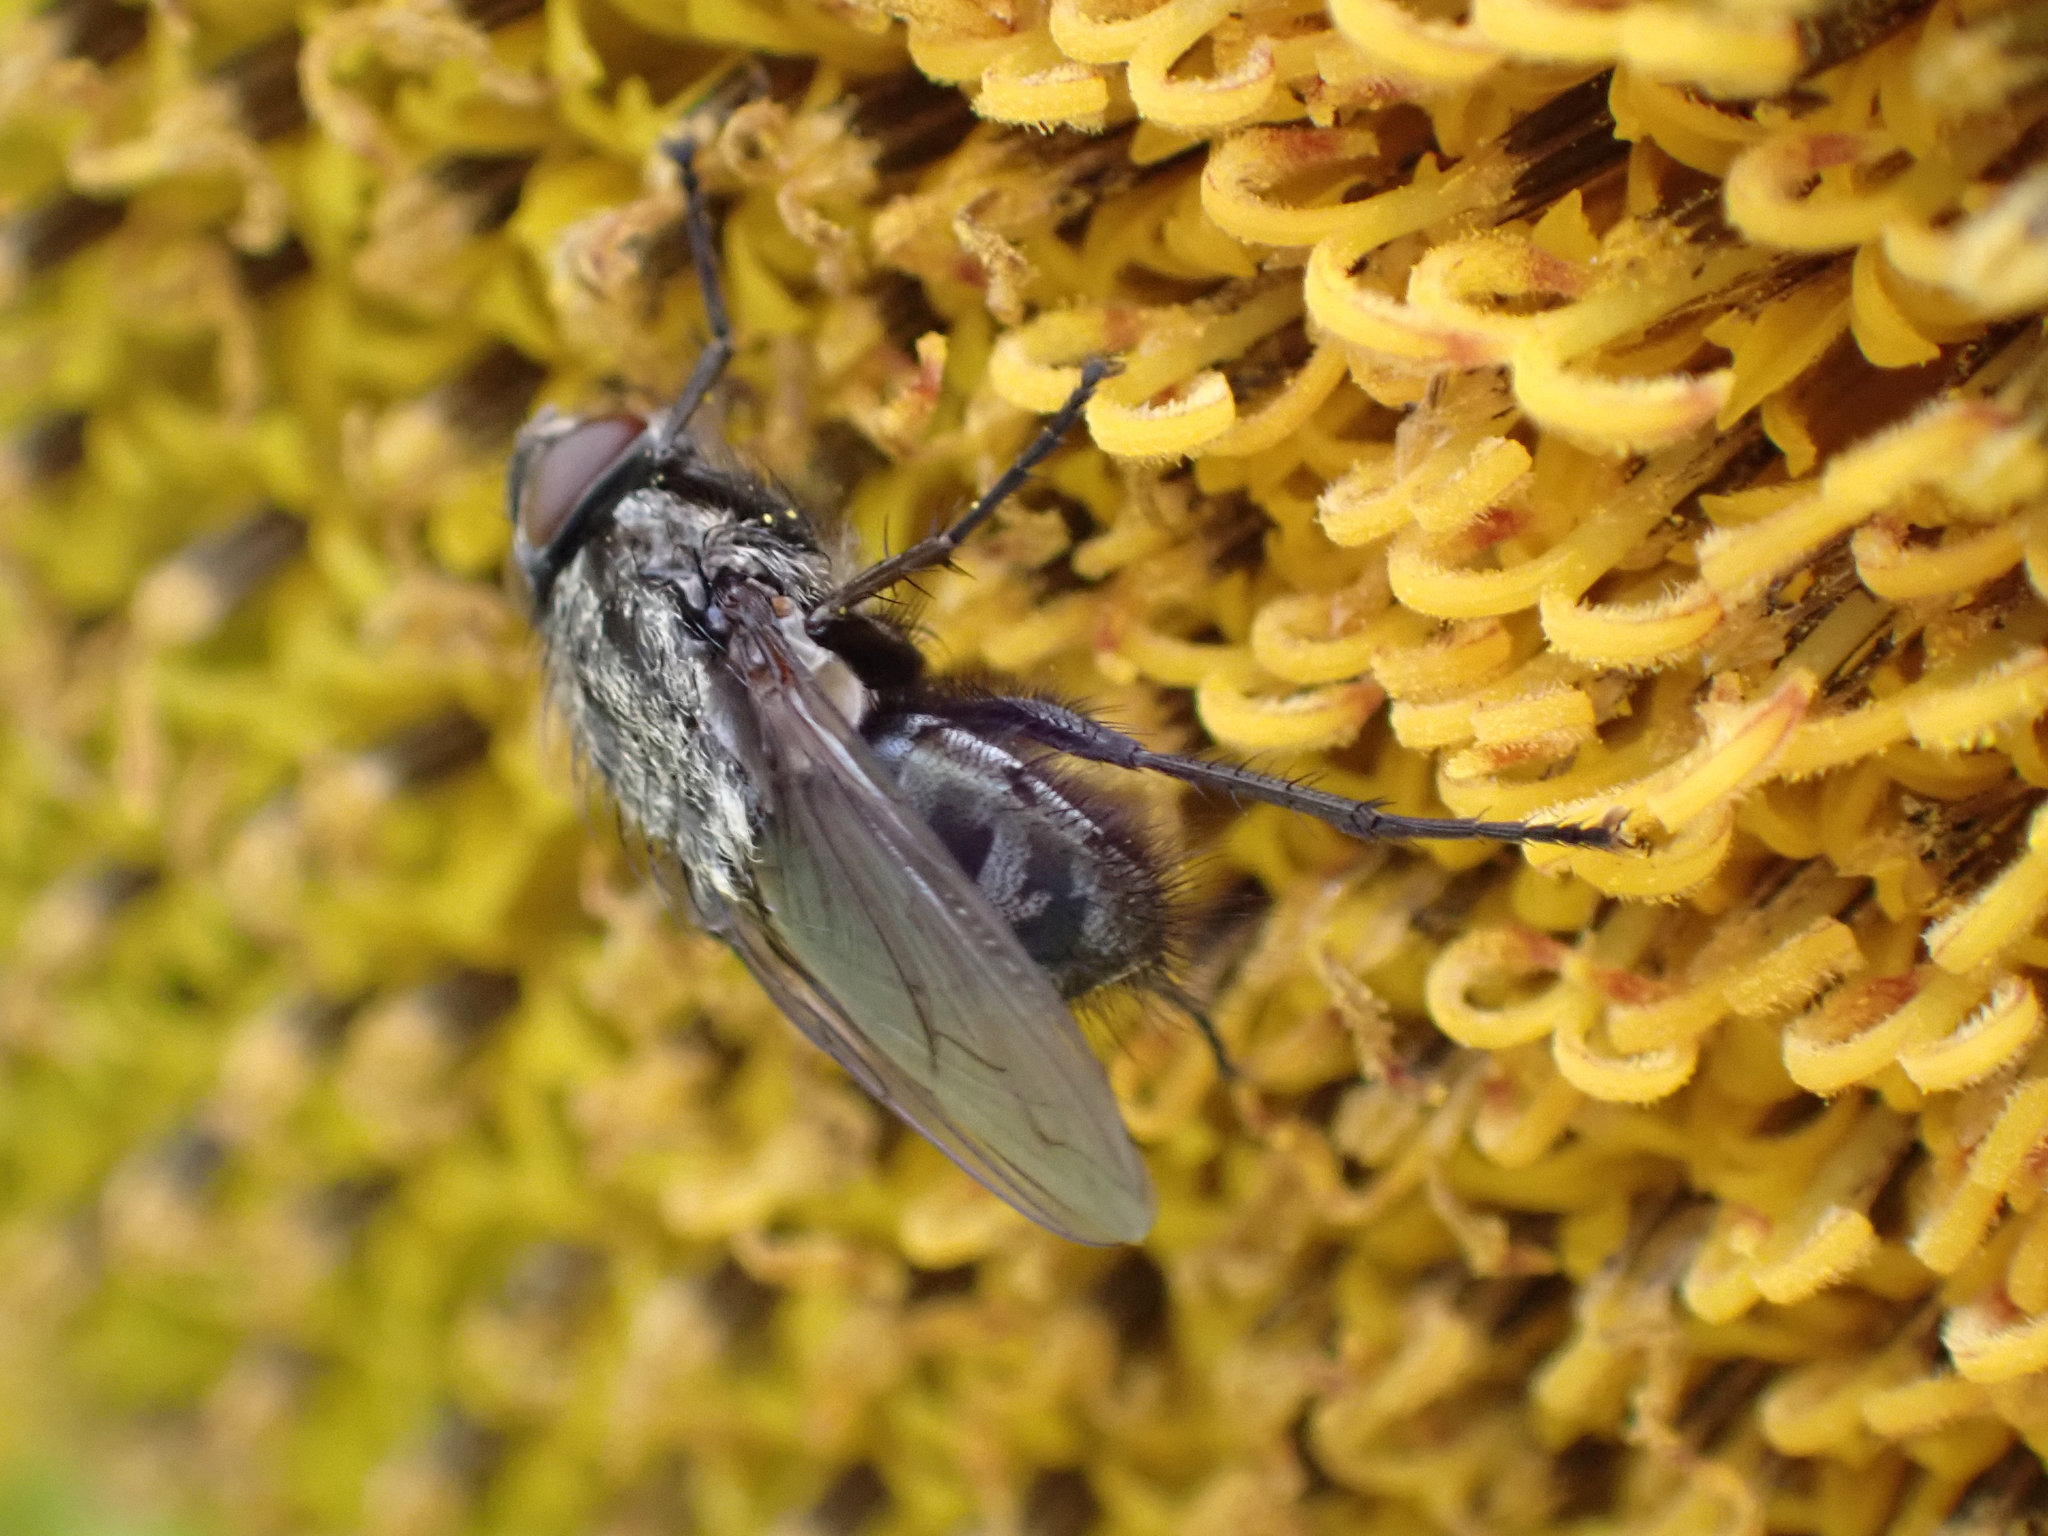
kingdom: Animalia
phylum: Arthropoda
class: Insecta
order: Diptera
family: Polleniidae
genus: Pollenia
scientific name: Pollenia vagabunda
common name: Vagabund cluster fly
